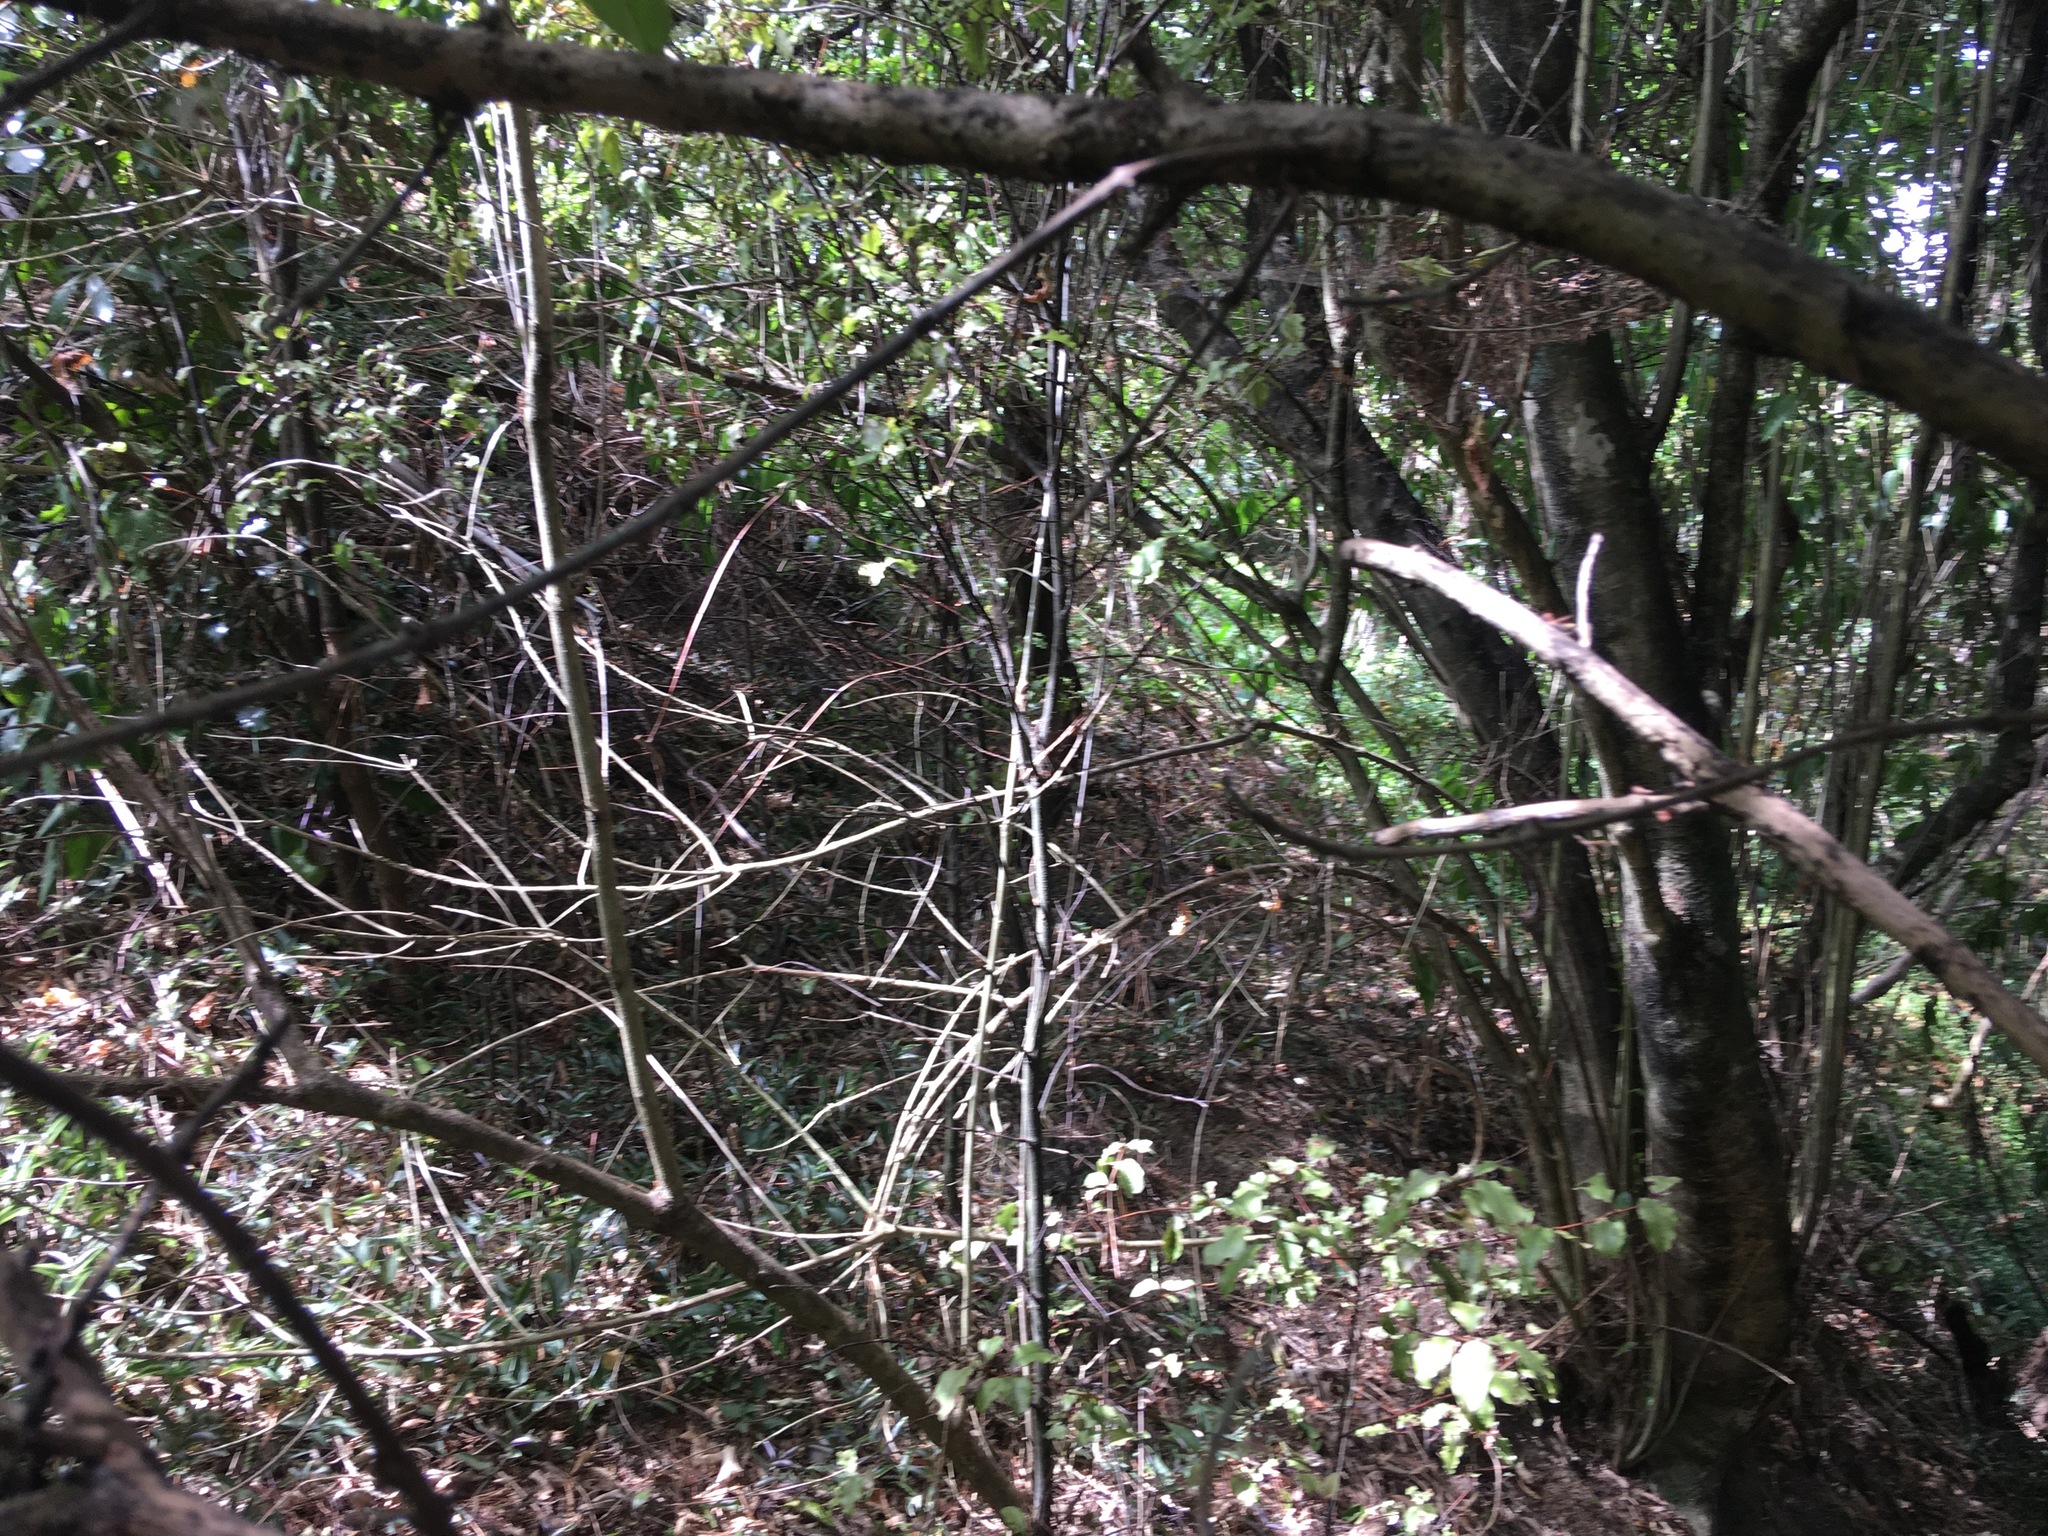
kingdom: Plantae
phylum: Tracheophyta
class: Magnoliopsida
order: Ericales
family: Primulaceae
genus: Myrsine
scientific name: Myrsine australis
